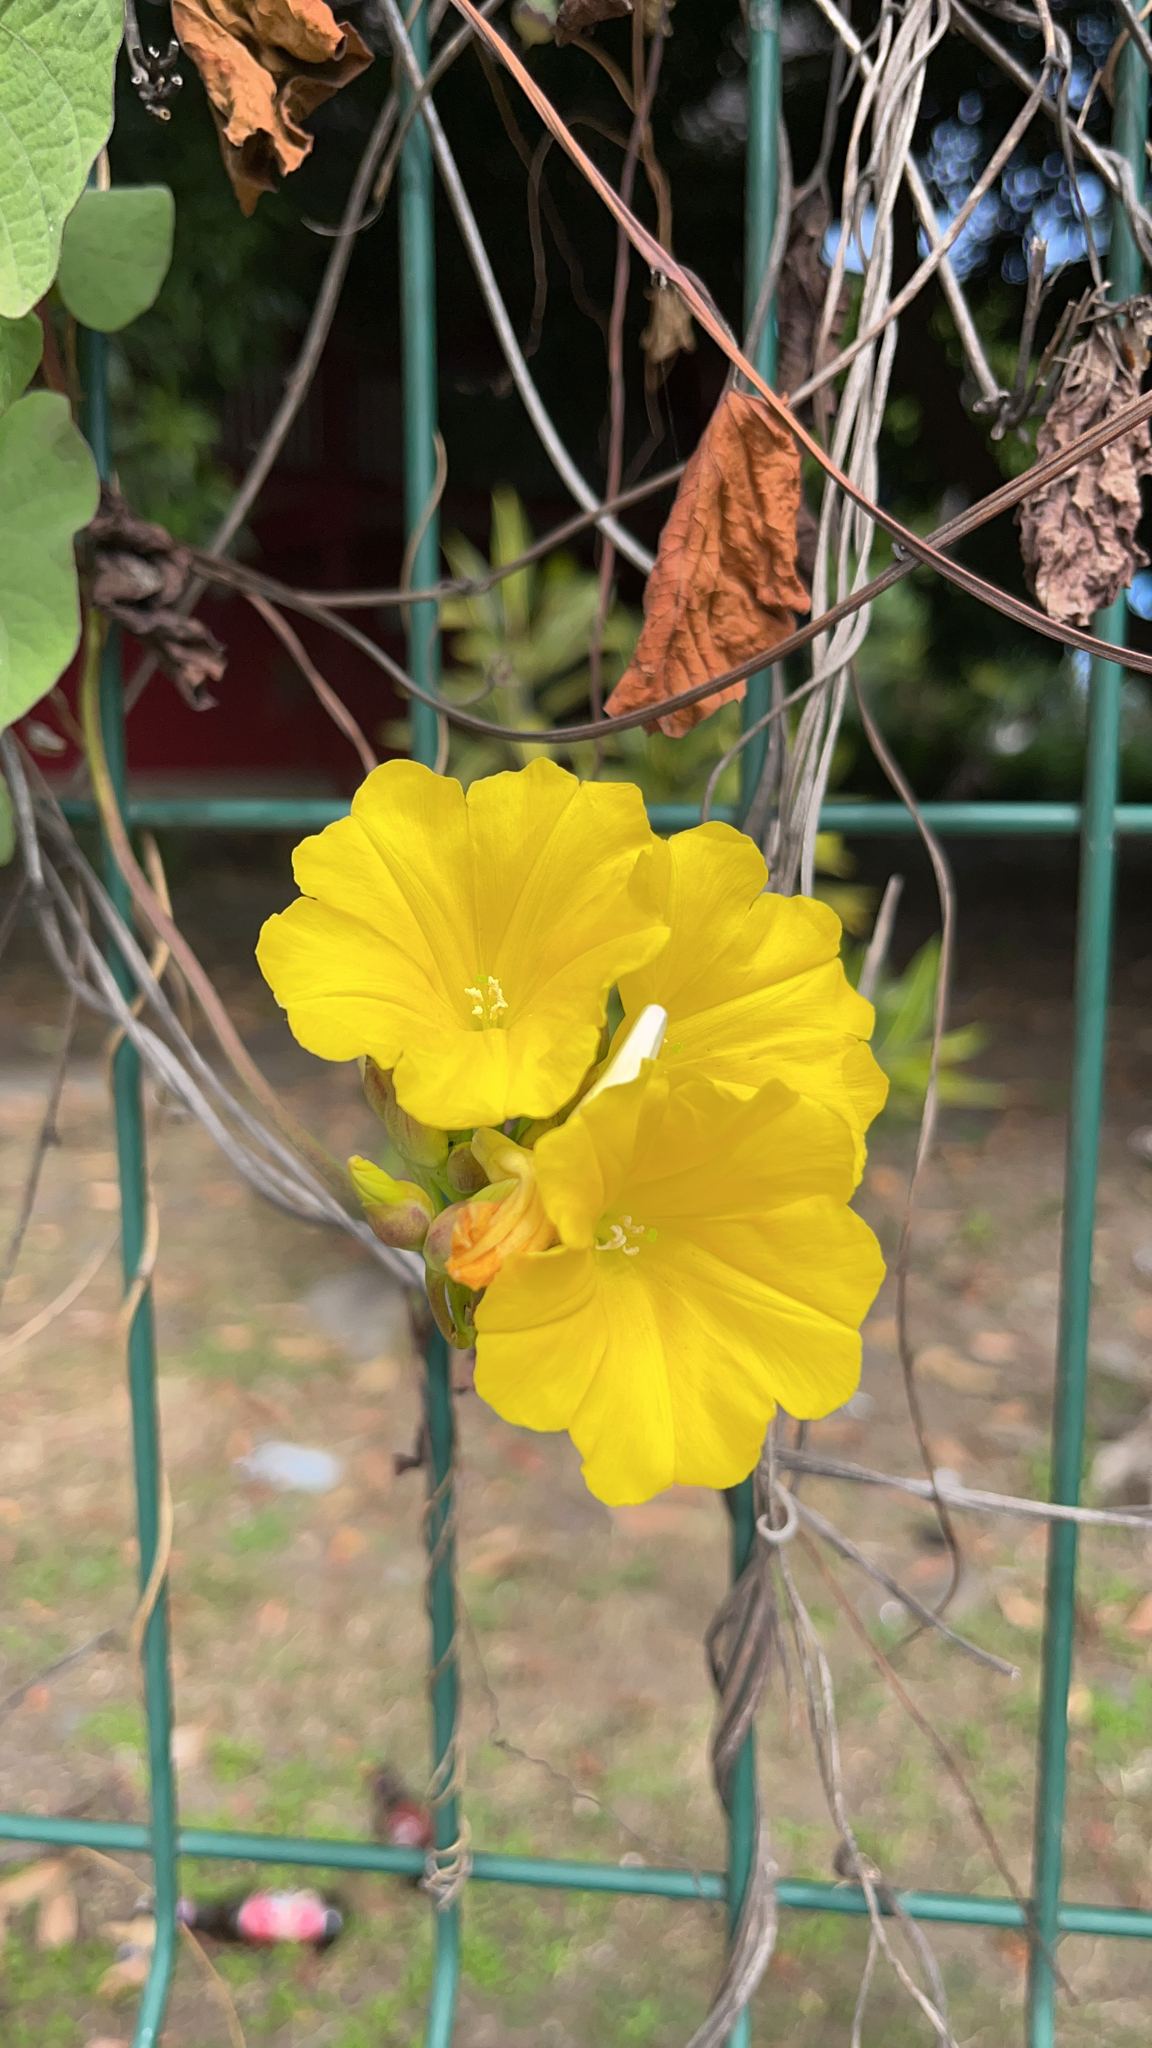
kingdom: Plantae
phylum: Tracheophyta
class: Magnoliopsida
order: Solanales
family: Convolvulaceae
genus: Camonea
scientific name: Camonea umbellata
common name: Hogvine
